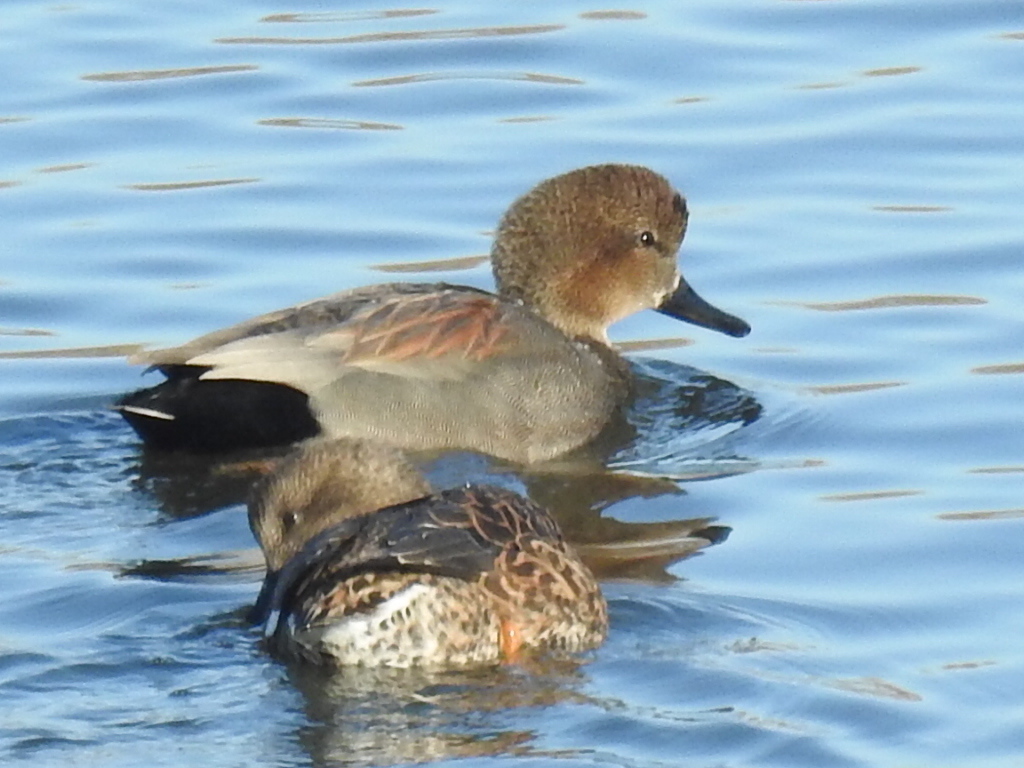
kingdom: Animalia
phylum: Chordata
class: Aves
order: Anseriformes
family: Anatidae
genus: Mareca
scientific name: Mareca strepera
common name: Gadwall
